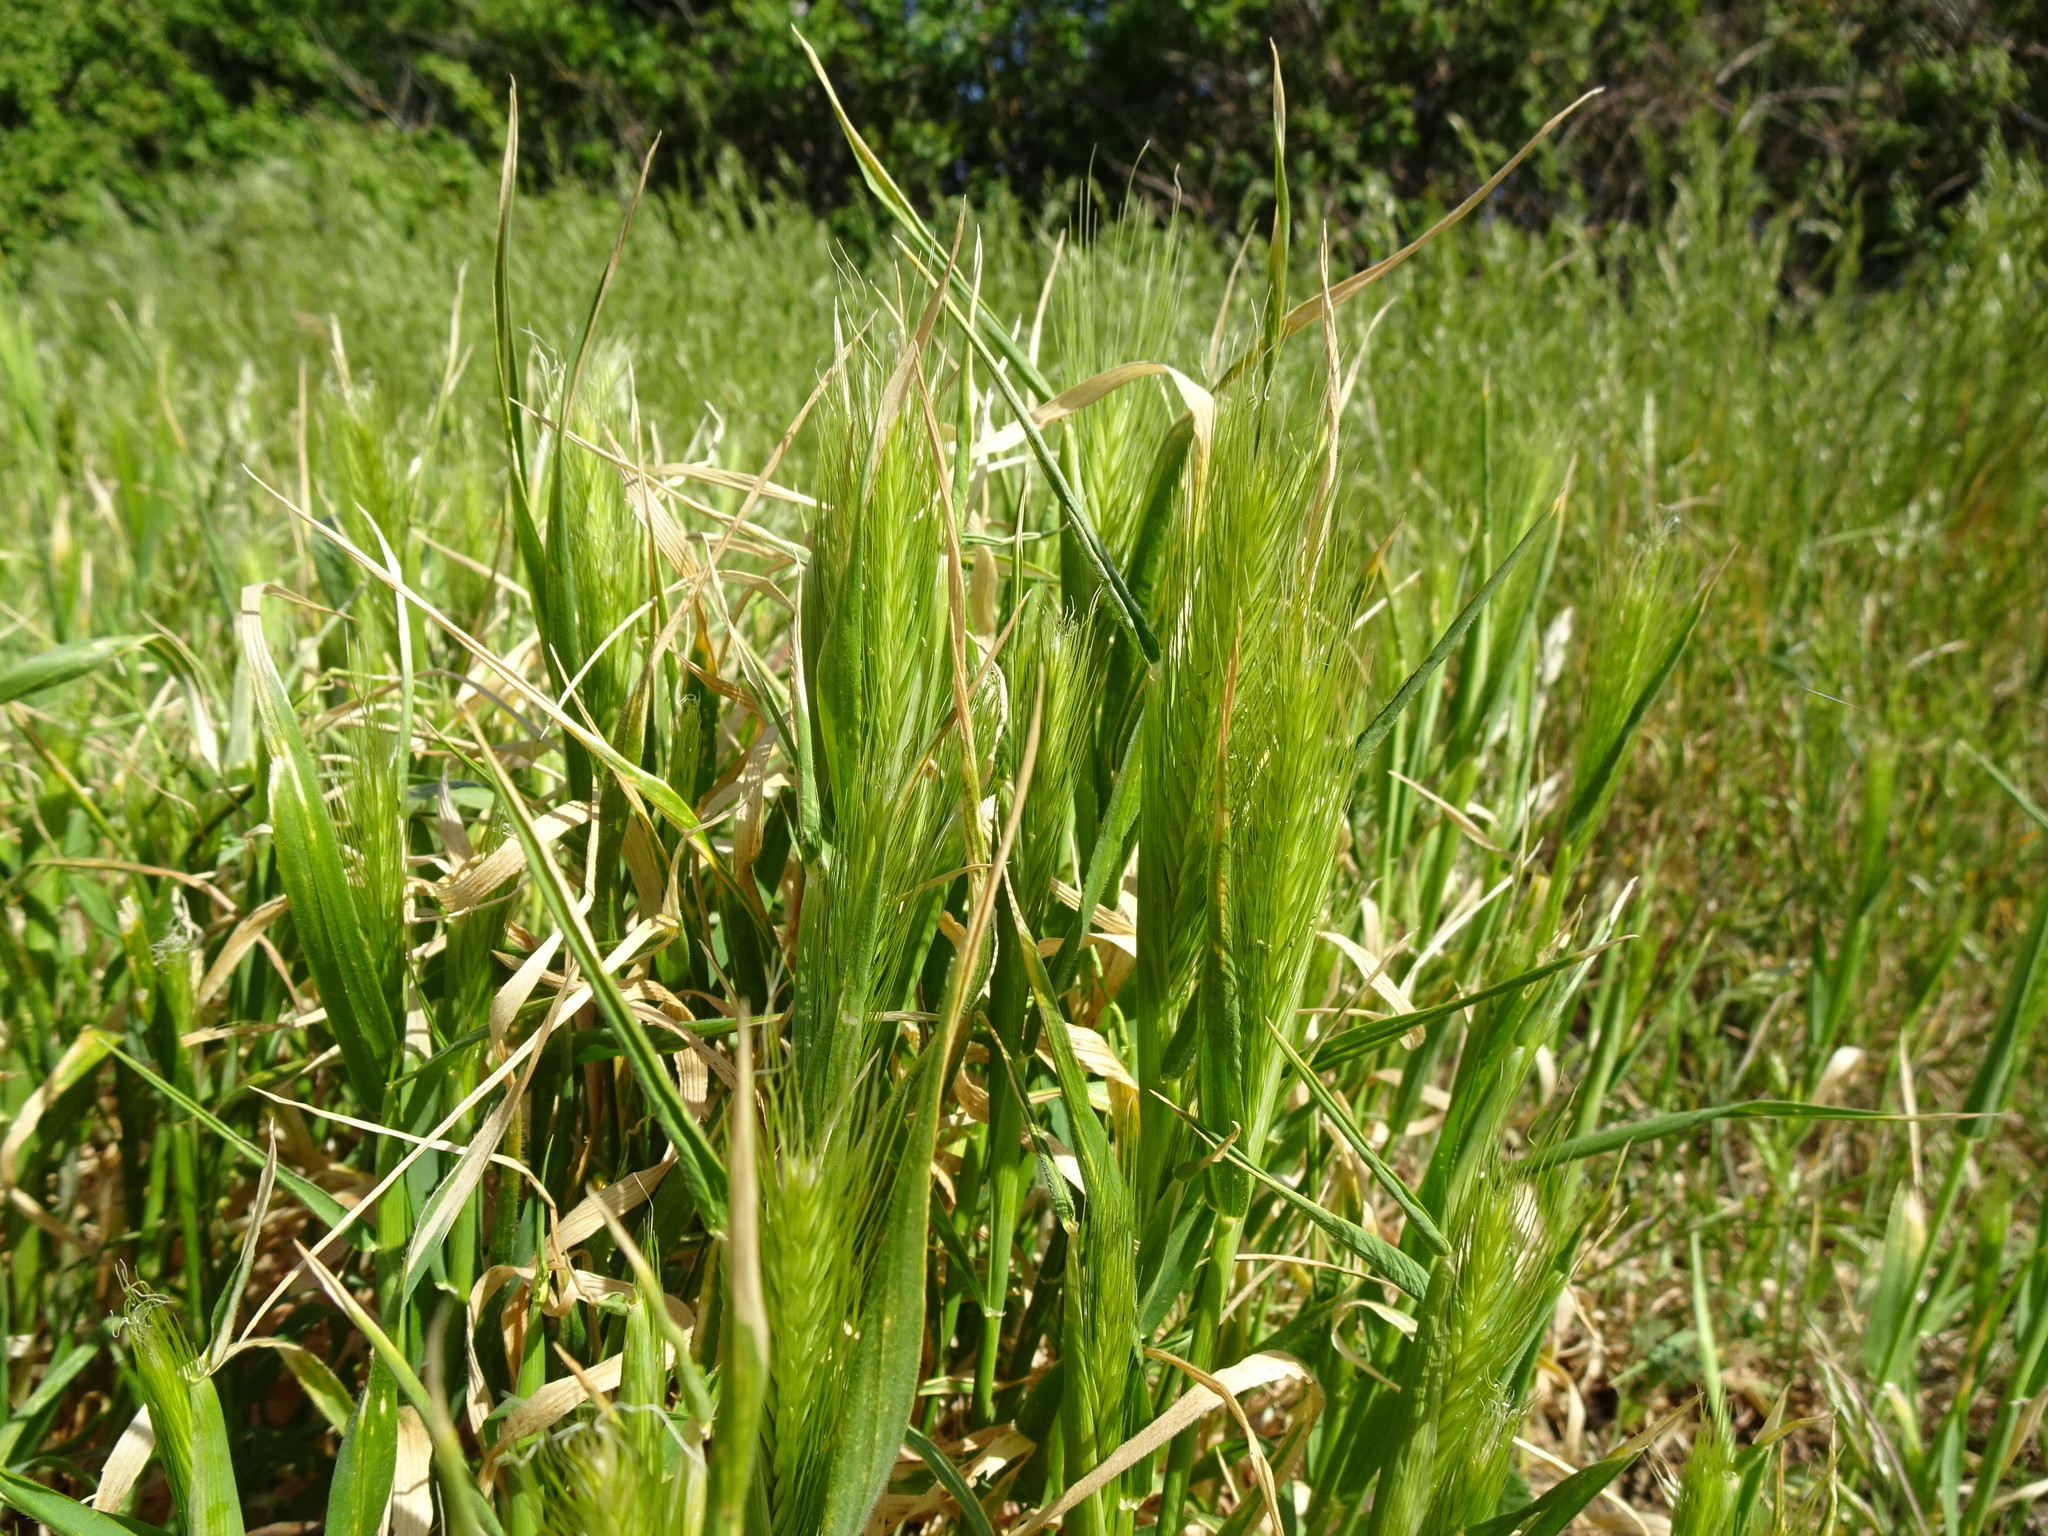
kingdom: Plantae
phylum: Tracheophyta
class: Liliopsida
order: Poales
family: Poaceae
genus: Hordeum
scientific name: Hordeum murinum
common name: Wall barley
